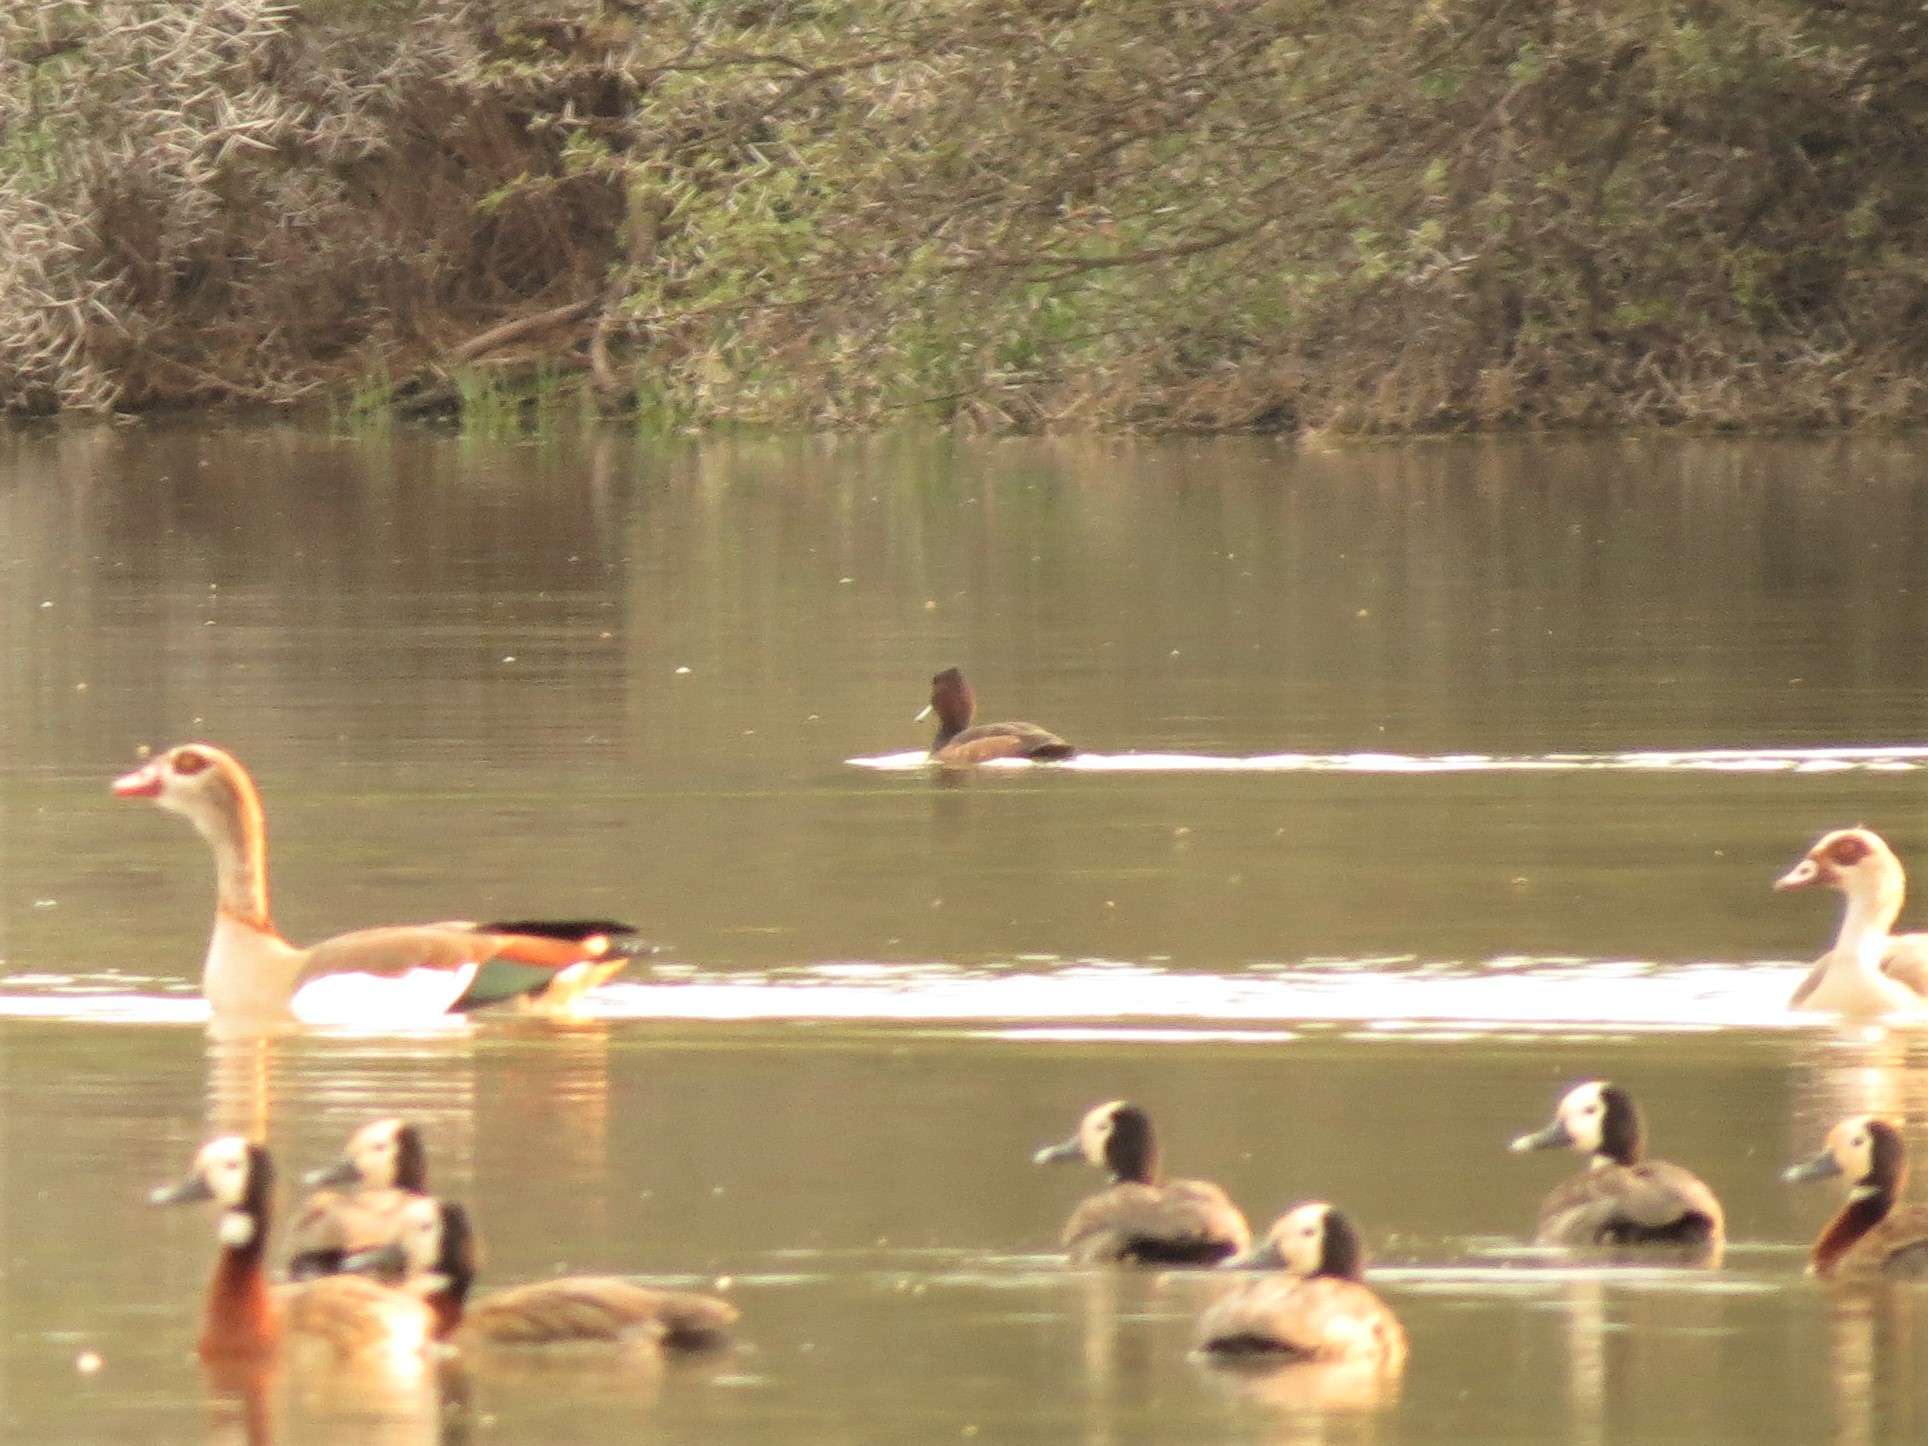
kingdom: Animalia
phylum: Chordata
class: Aves
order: Anseriformes
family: Anatidae
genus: Netta
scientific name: Netta erythrophthalma
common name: Southern pochard
